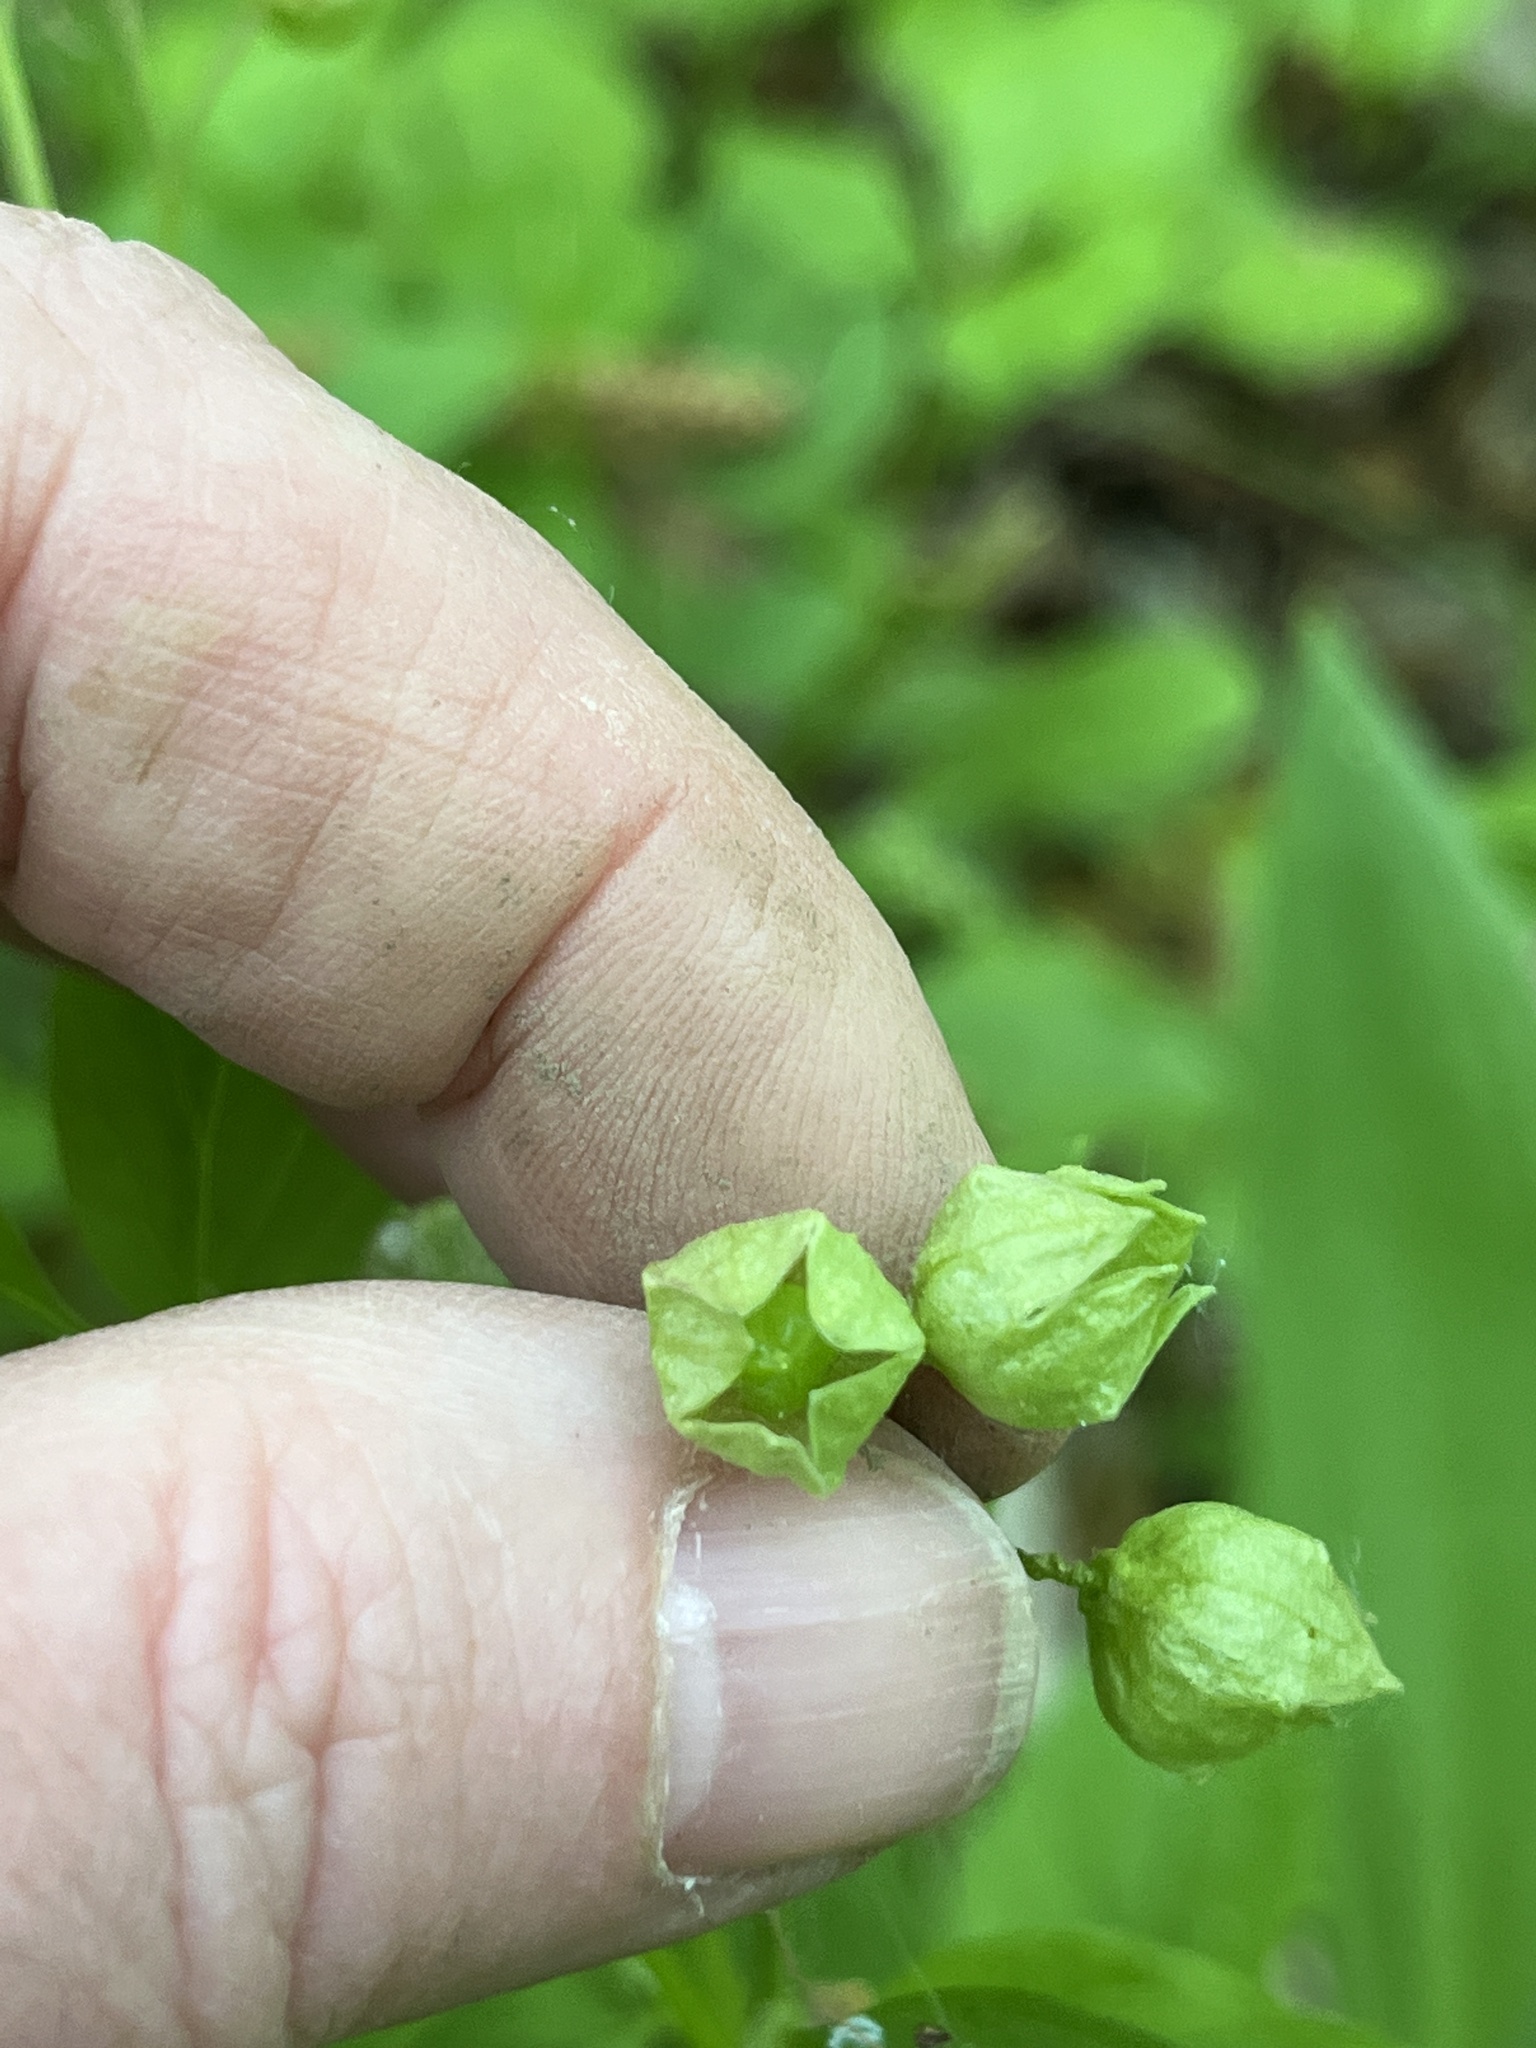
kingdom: Plantae
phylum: Tracheophyta
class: Magnoliopsida
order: Ericales
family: Polemoniaceae
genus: Polemonium
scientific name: Polemonium reptans
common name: Creeping jacob's-ladder
